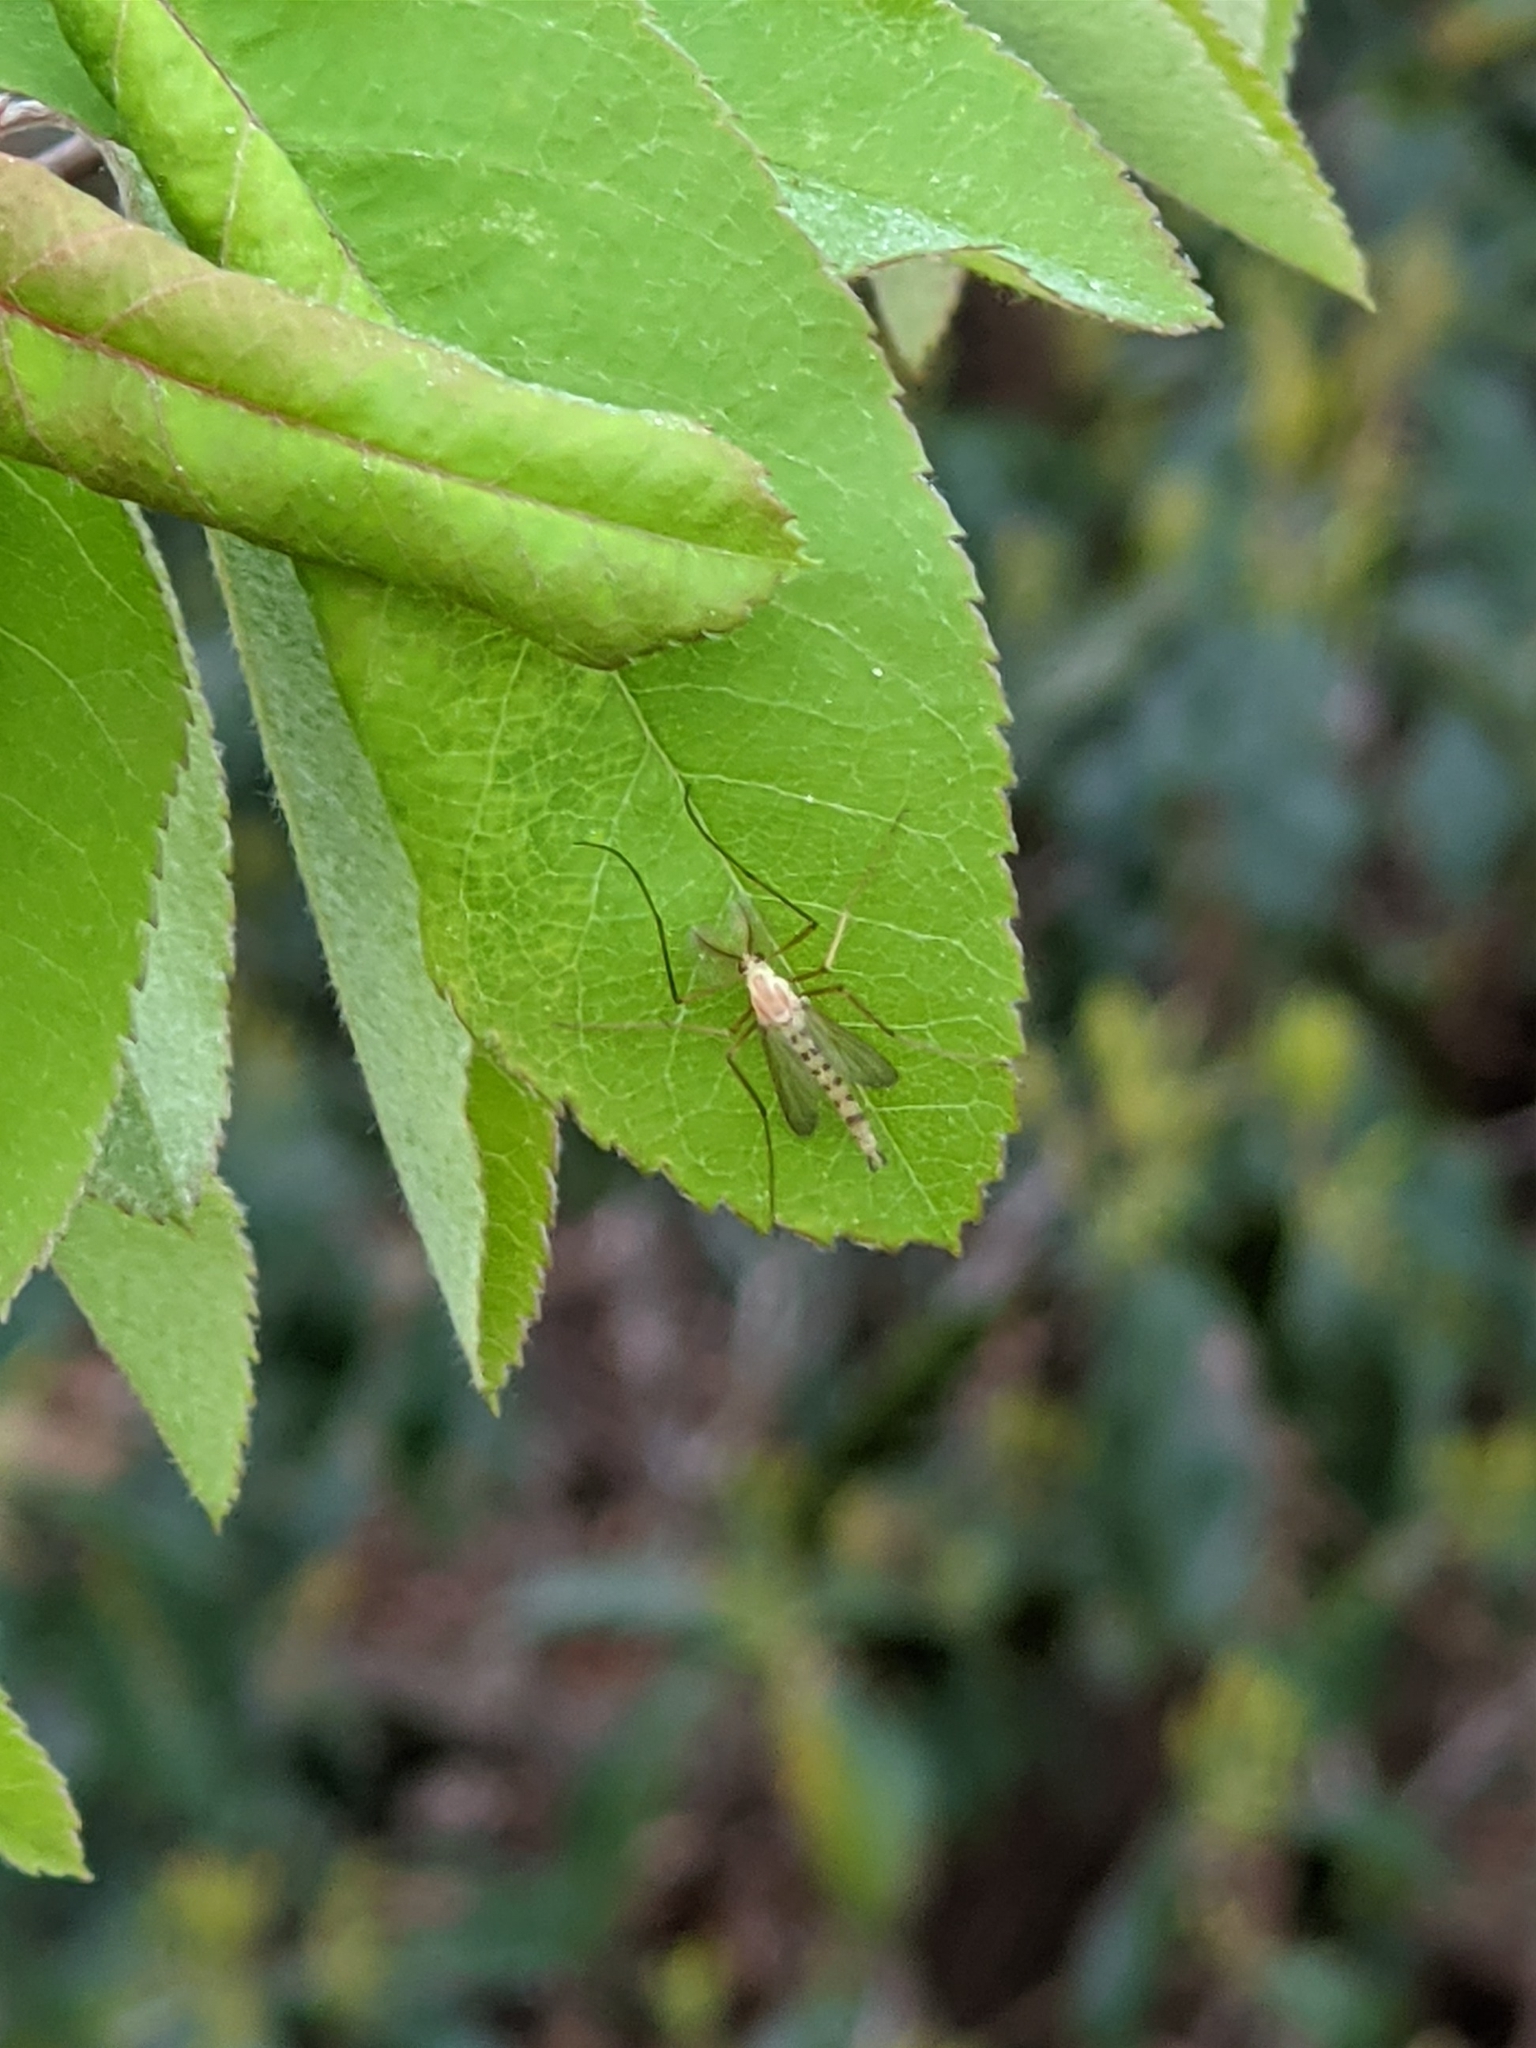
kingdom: Animalia
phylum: Arthropoda
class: Insecta
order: Diptera
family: Chironomidae
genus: Xylotopus
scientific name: Xylotopus par
